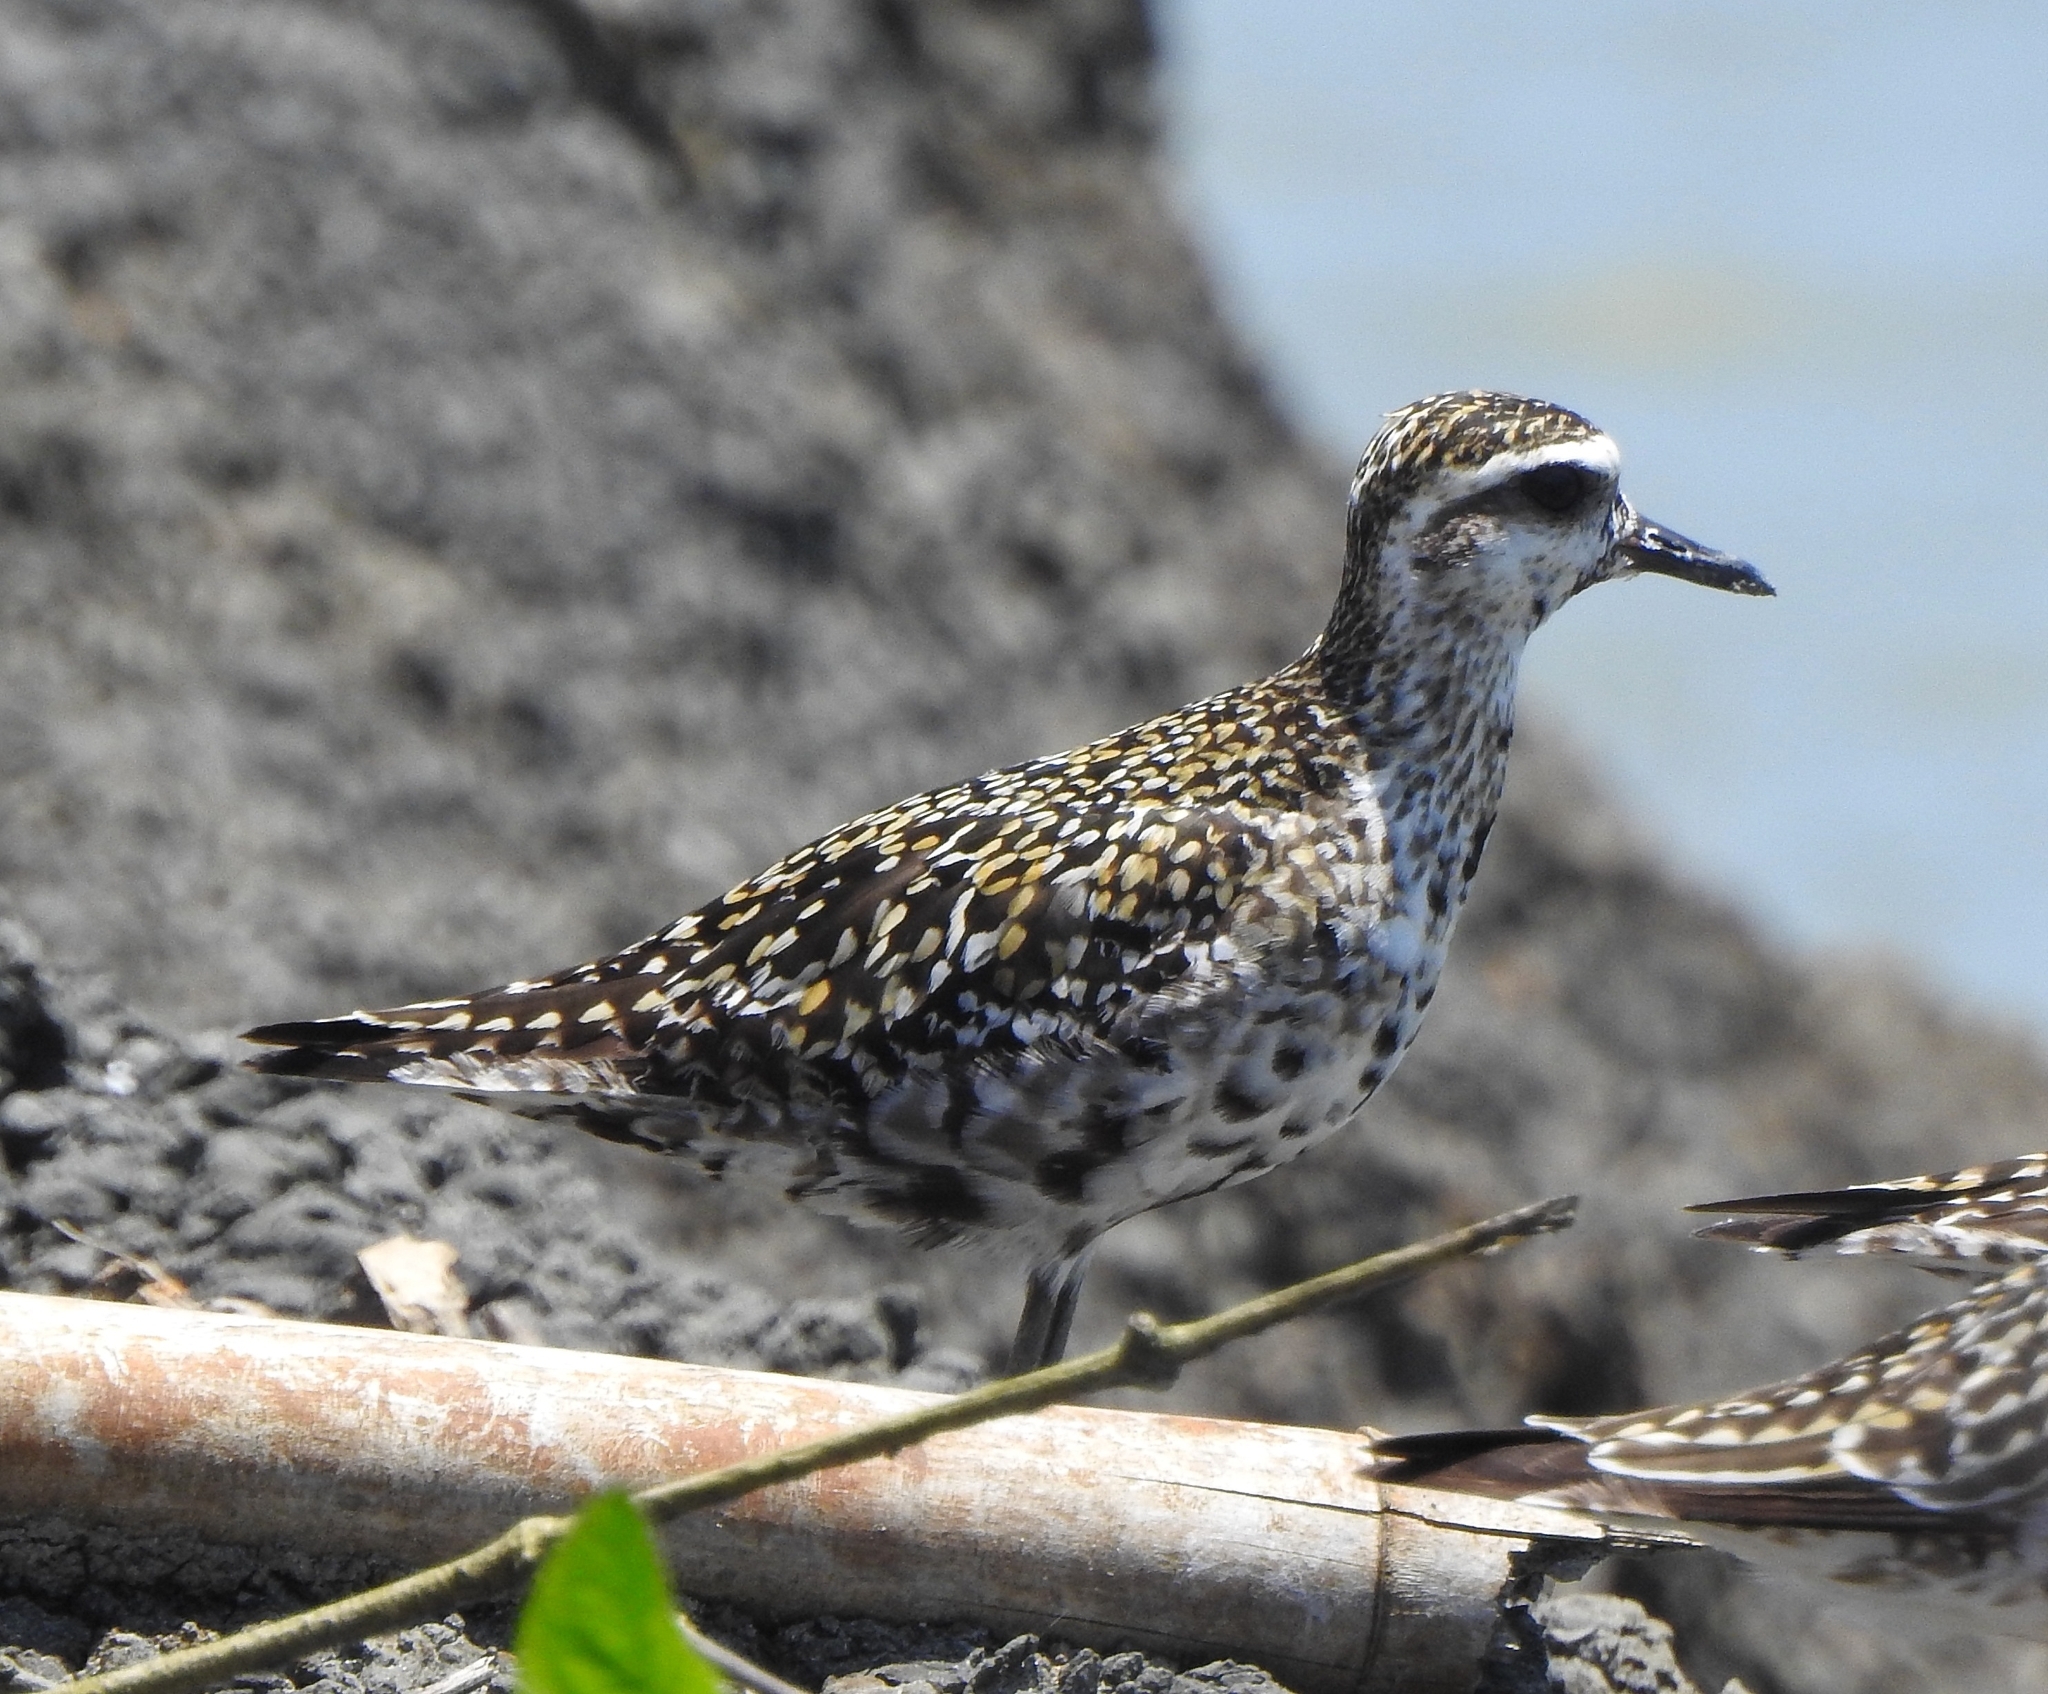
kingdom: Animalia
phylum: Chordata
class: Aves
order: Charadriiformes
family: Charadriidae
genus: Pluvialis
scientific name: Pluvialis fulva
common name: Pacific golden plover
